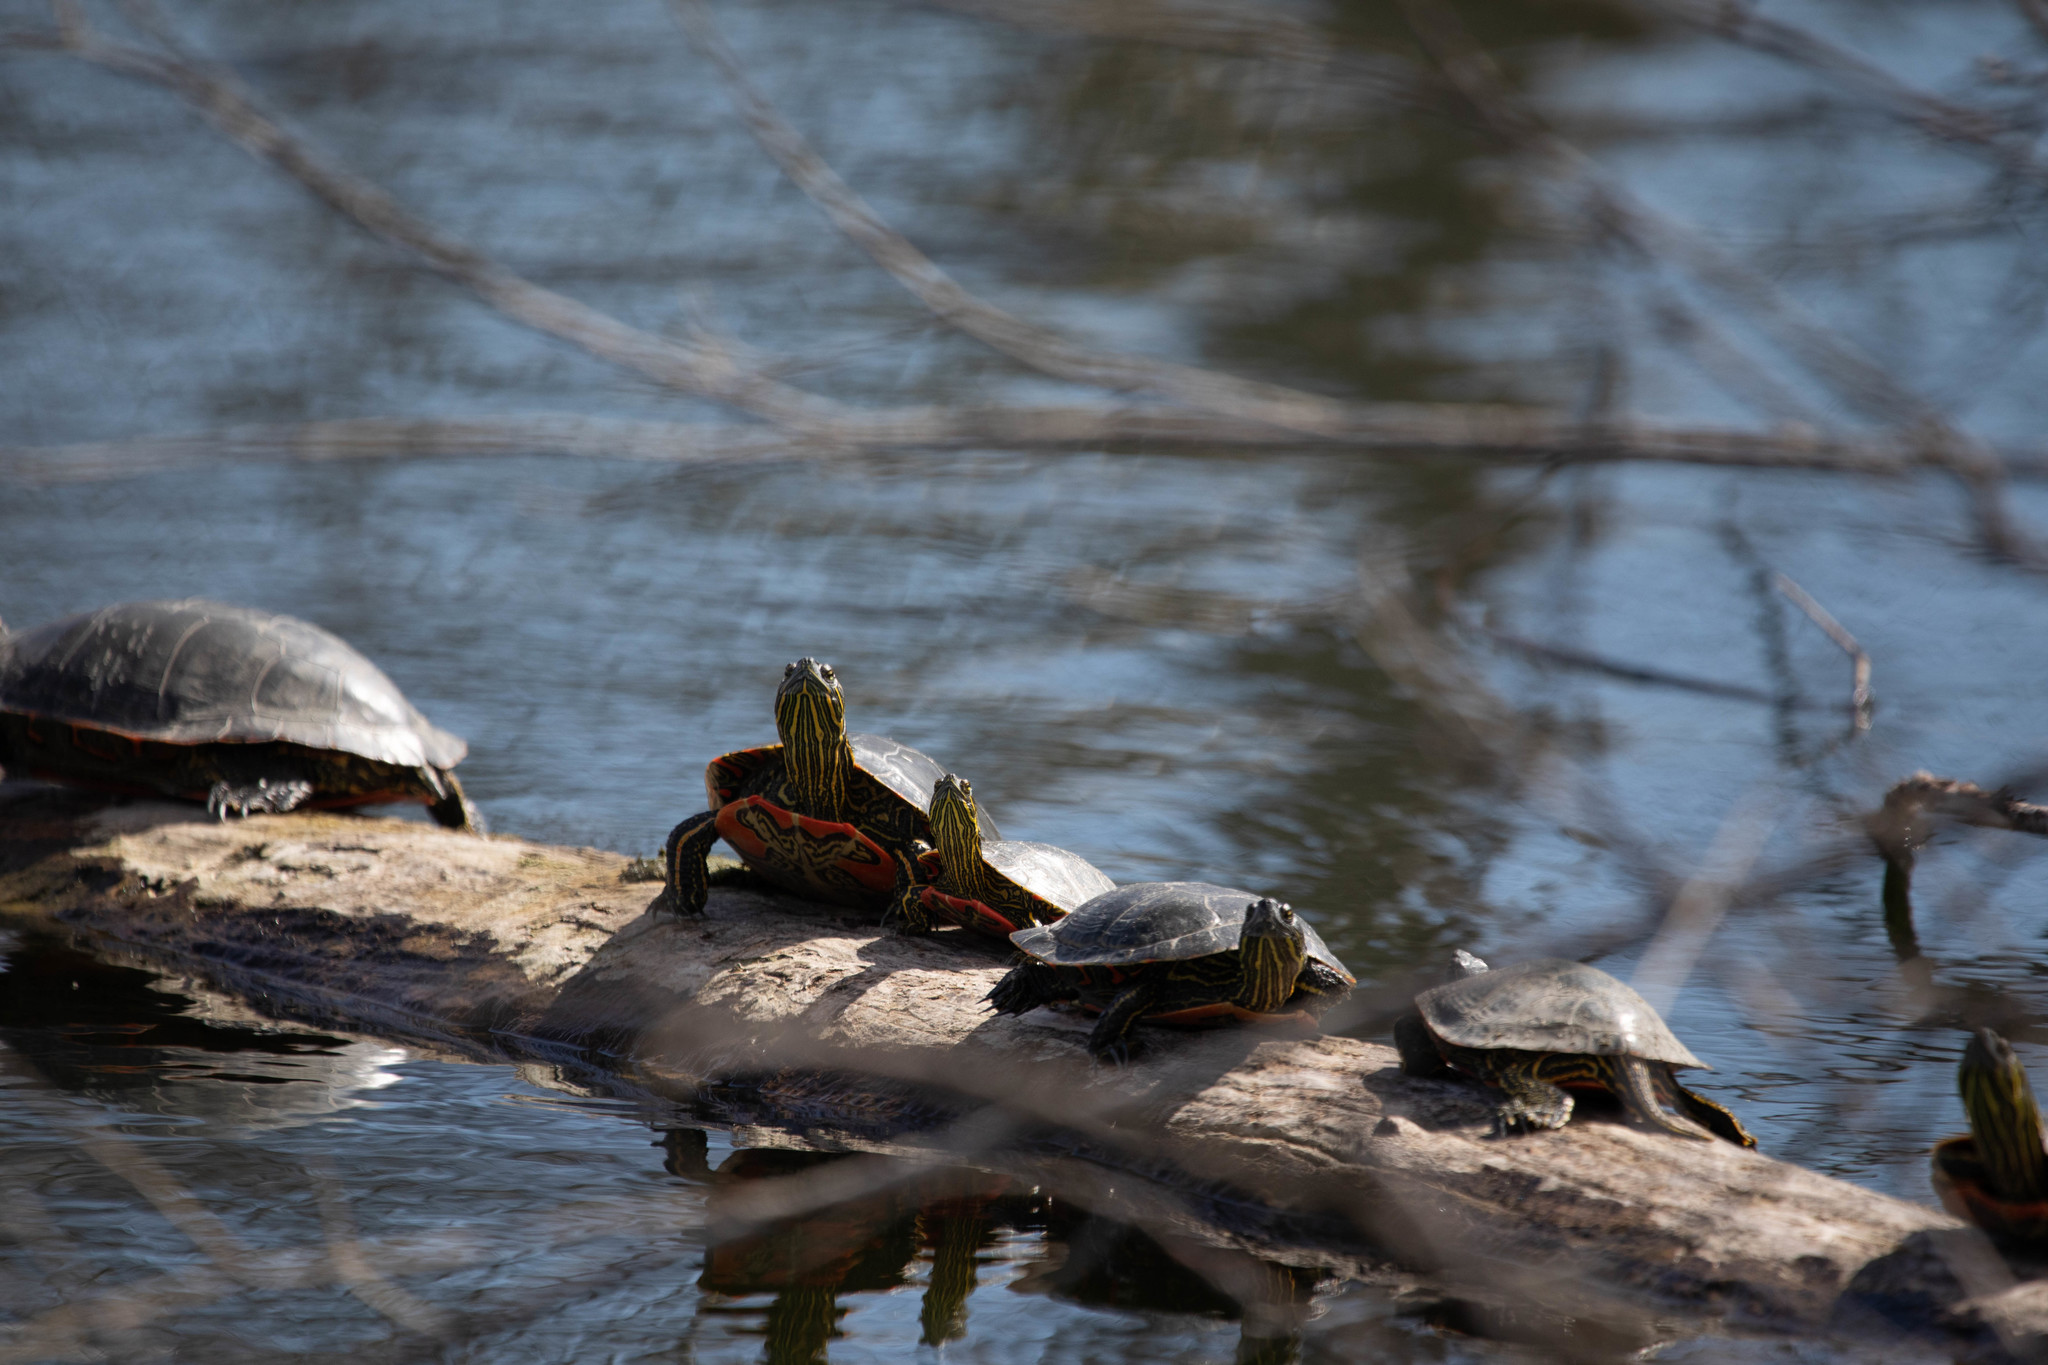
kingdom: Animalia
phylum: Chordata
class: Testudines
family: Emydidae
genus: Chrysemys
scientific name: Chrysemys picta
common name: Painted turtle
